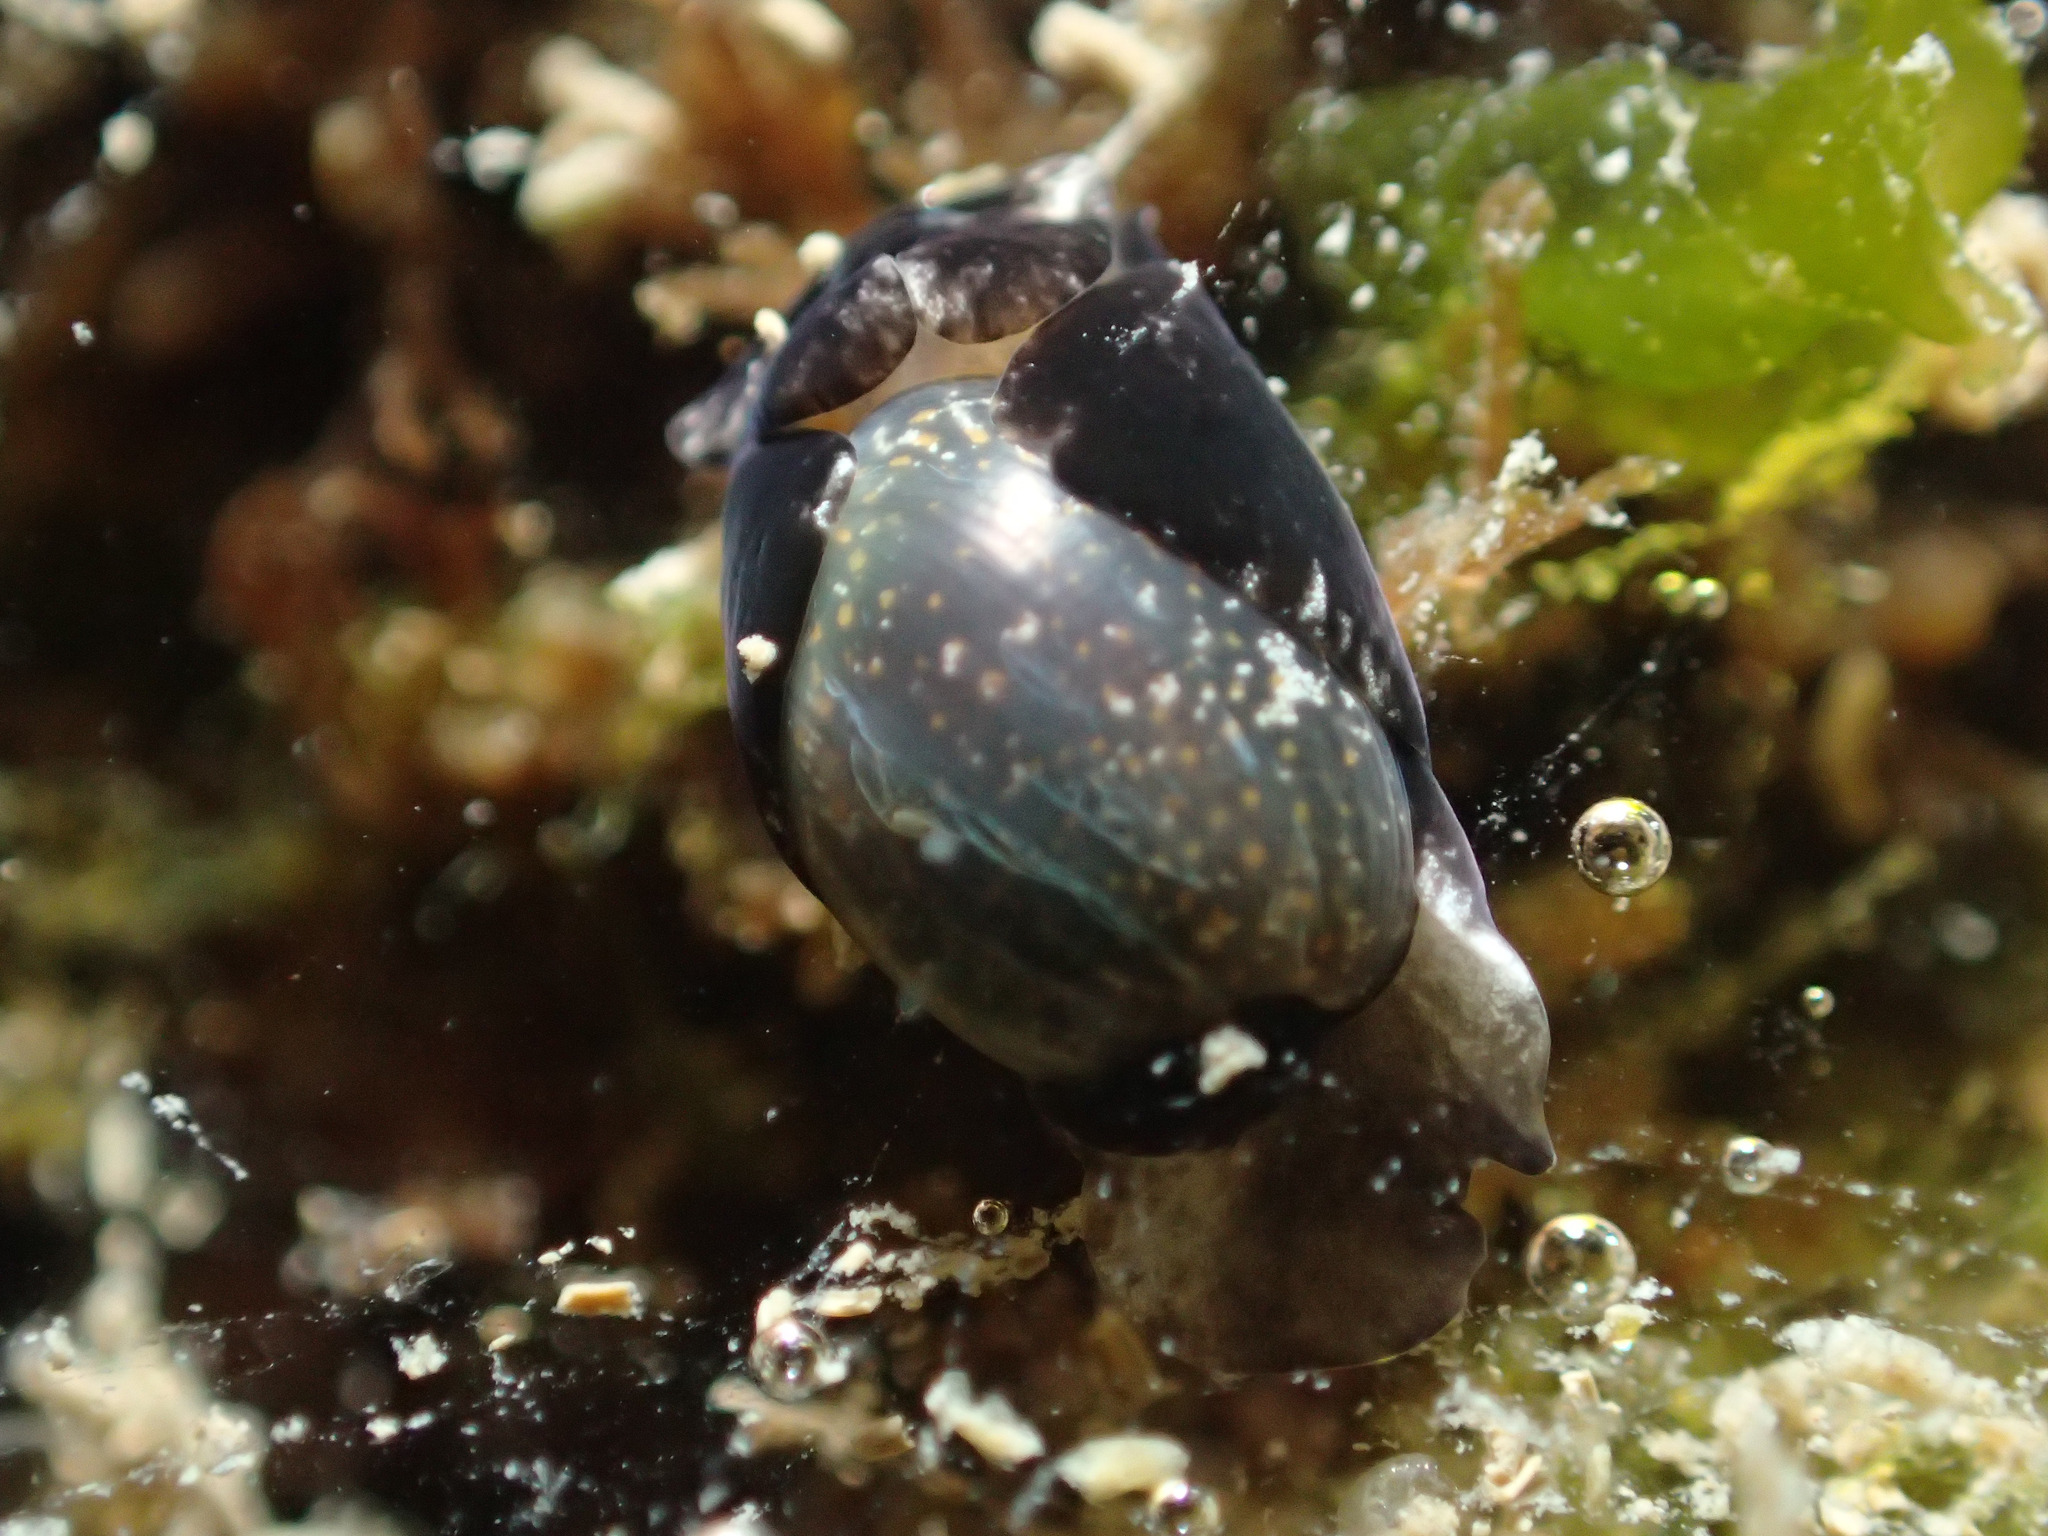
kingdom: Animalia
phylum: Mollusca
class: Gastropoda
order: Cephalaspidea
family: Haminoeidae
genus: Haminoea
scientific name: Haminoea exigua
